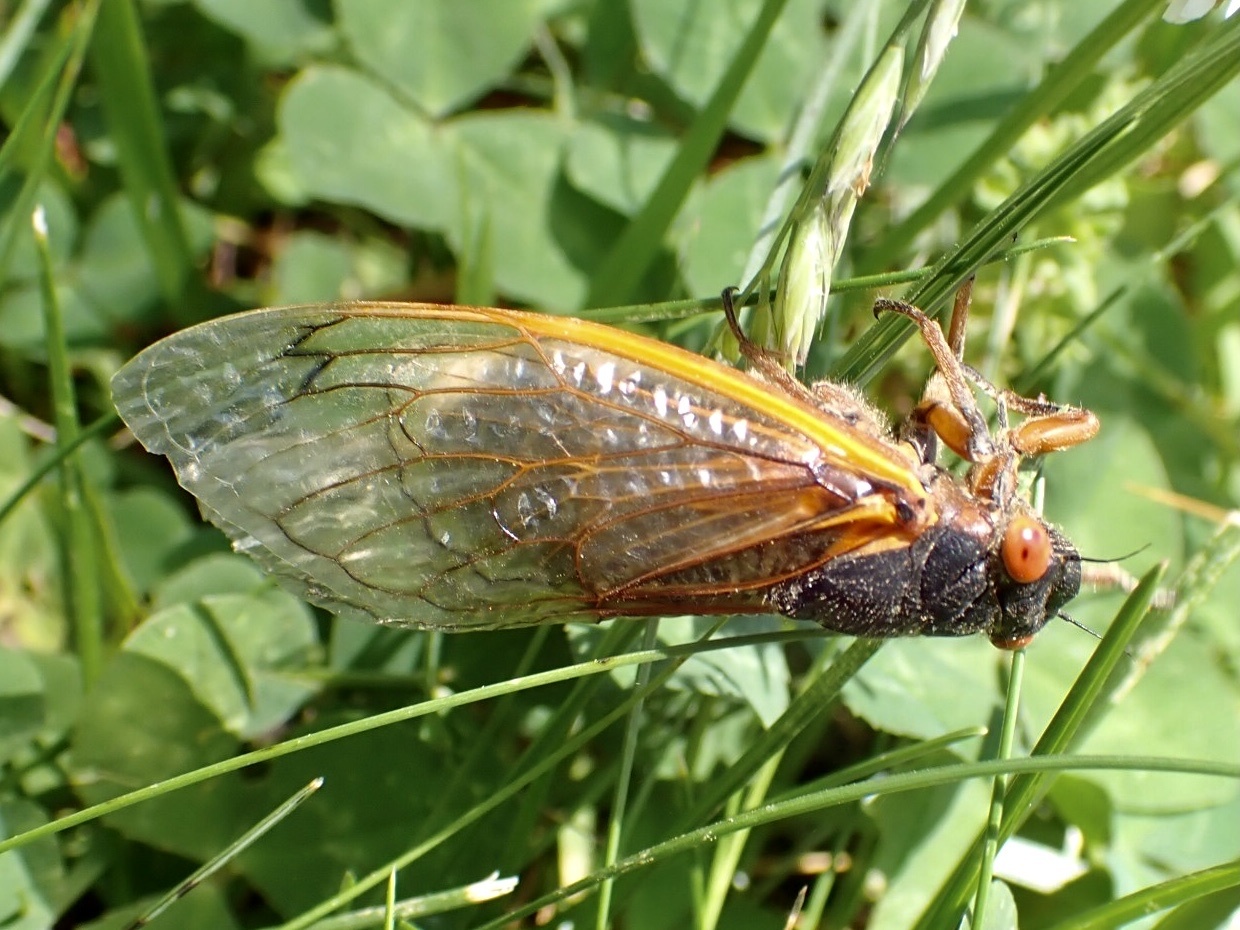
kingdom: Fungi
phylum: Entomophthoromycota
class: Entomophthoromycetes
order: Entomophthorales
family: Entomophthoraceae
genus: Massospora
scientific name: Massospora cicadina
